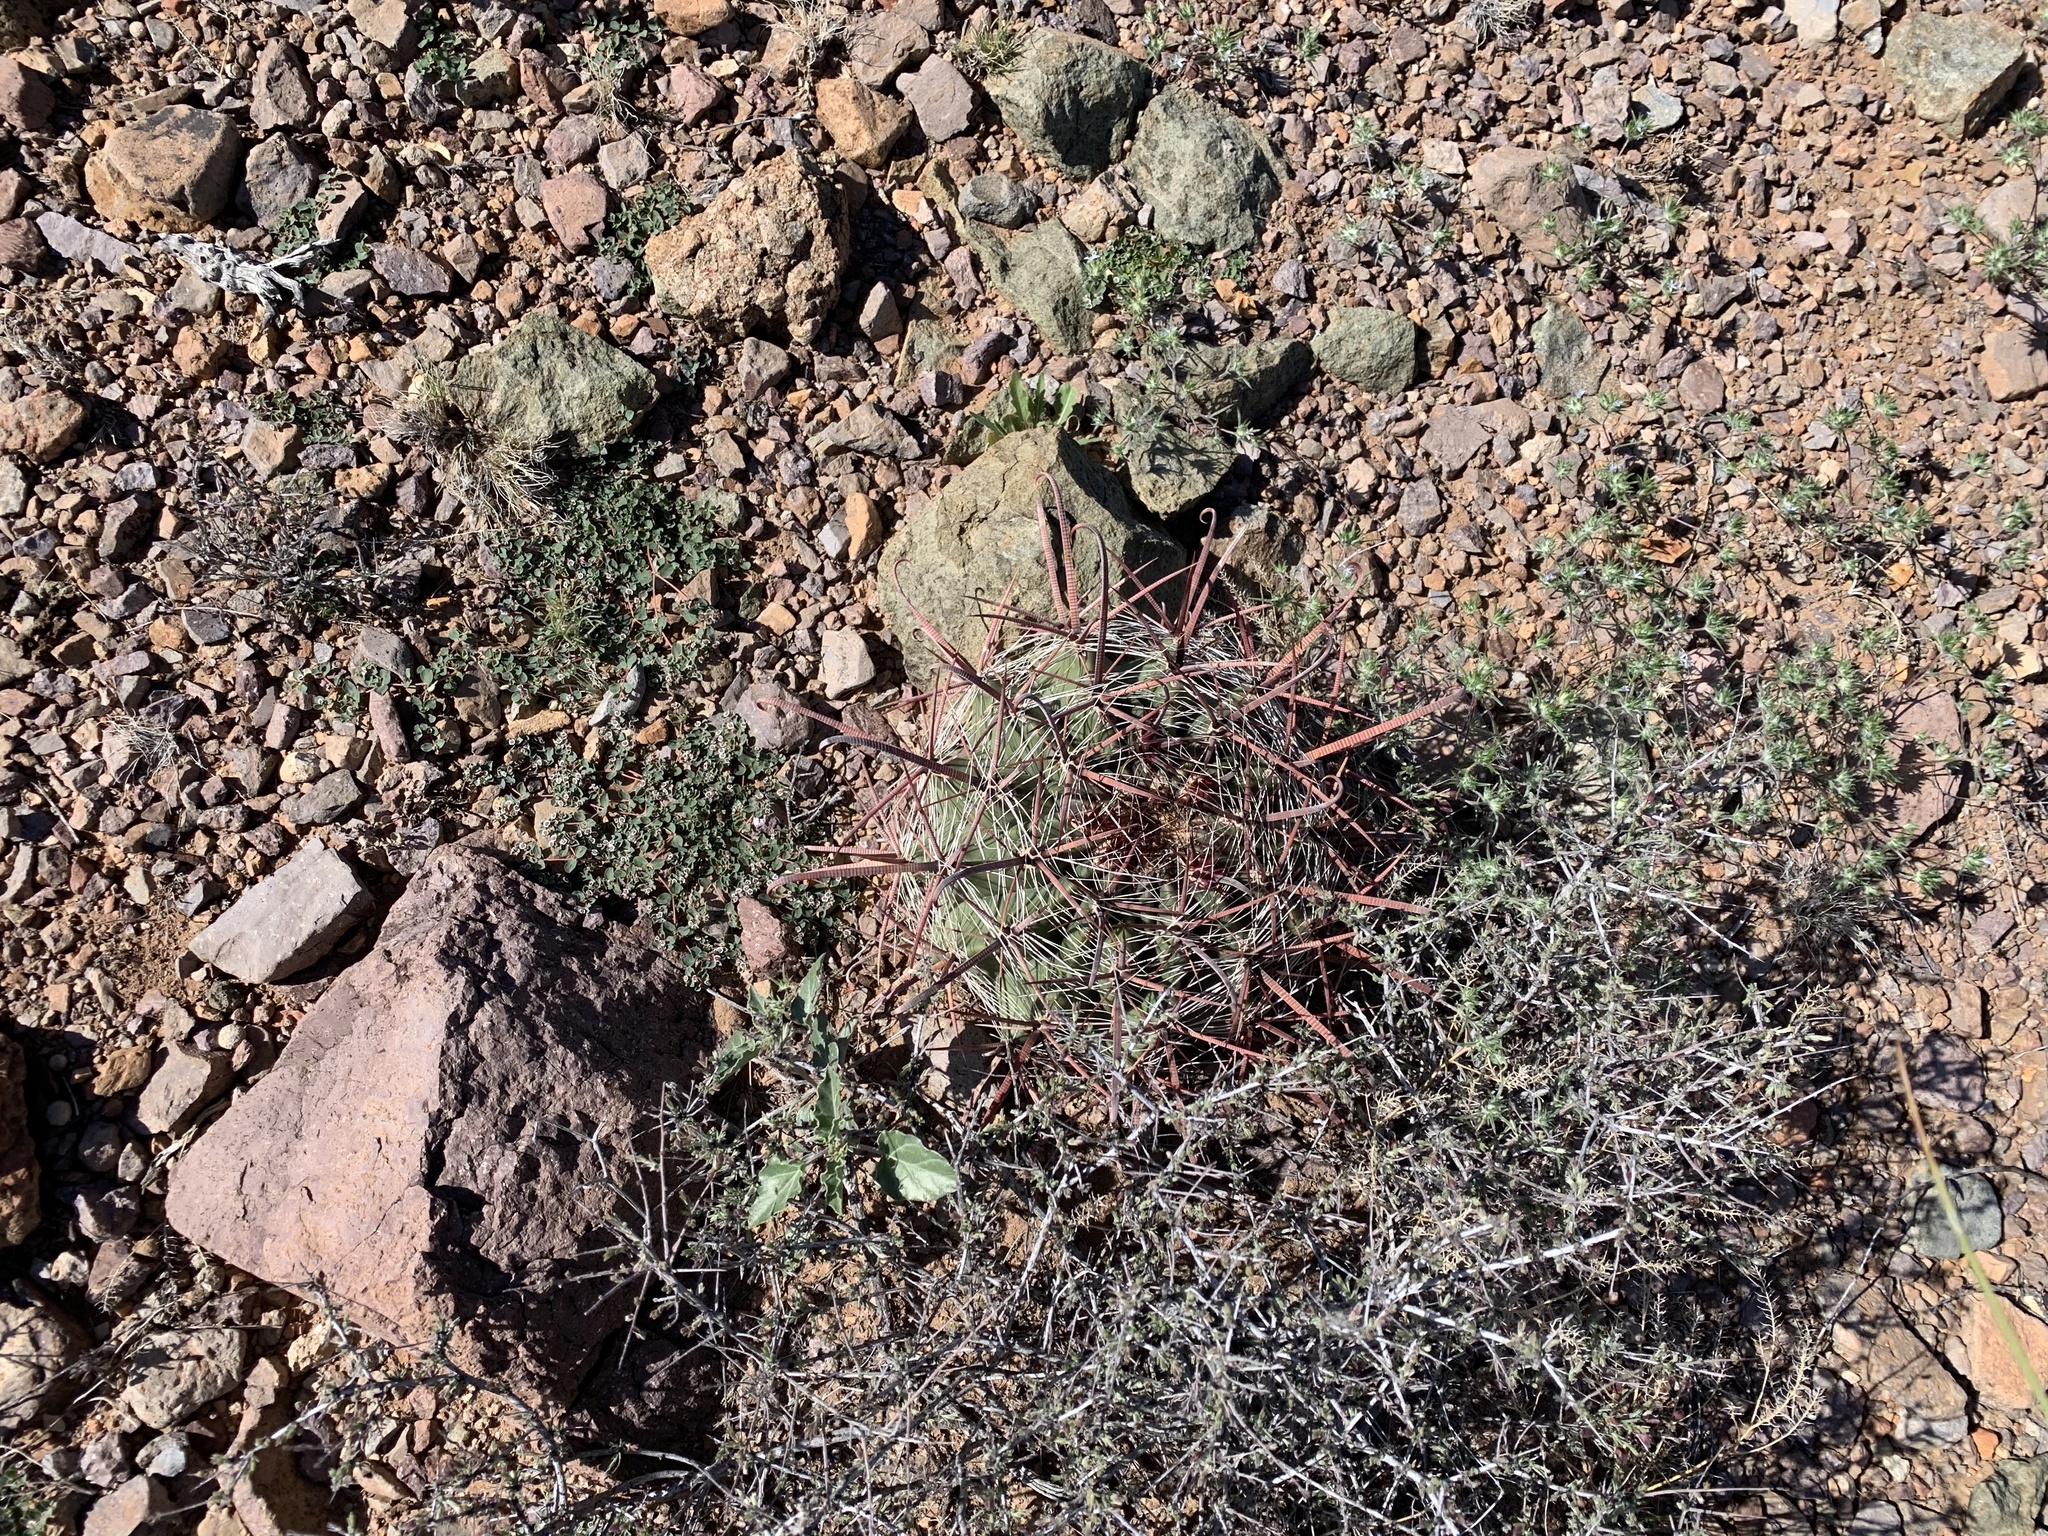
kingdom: Plantae
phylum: Tracheophyta
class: Magnoliopsida
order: Caryophyllales
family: Cactaceae
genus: Ferocactus
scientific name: Ferocactus wislizeni
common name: Candy barrel cactus
